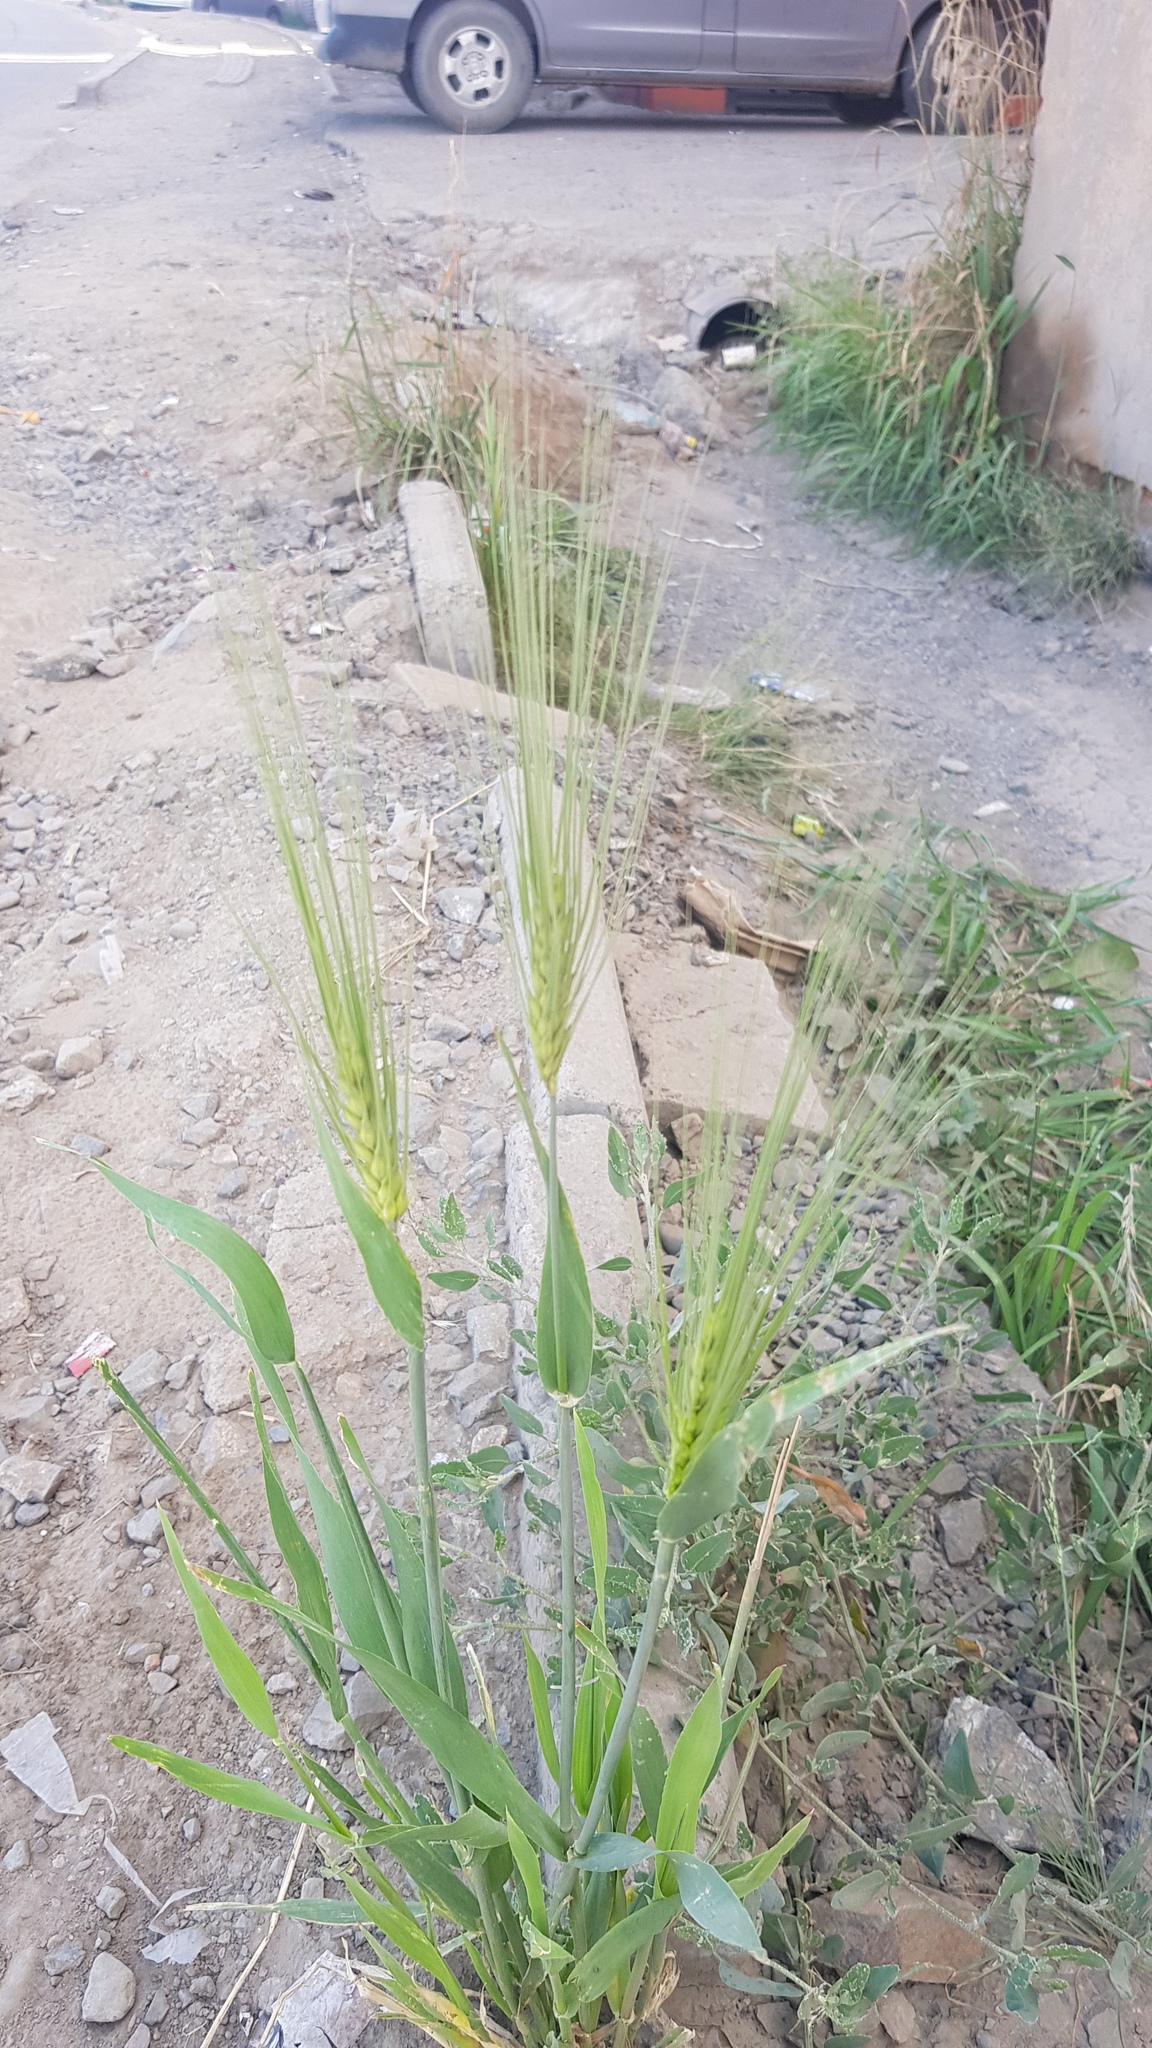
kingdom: Plantae
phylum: Tracheophyta
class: Liliopsida
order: Poales
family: Poaceae
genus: Hordeum
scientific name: Hordeum vulgare
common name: Common barley
